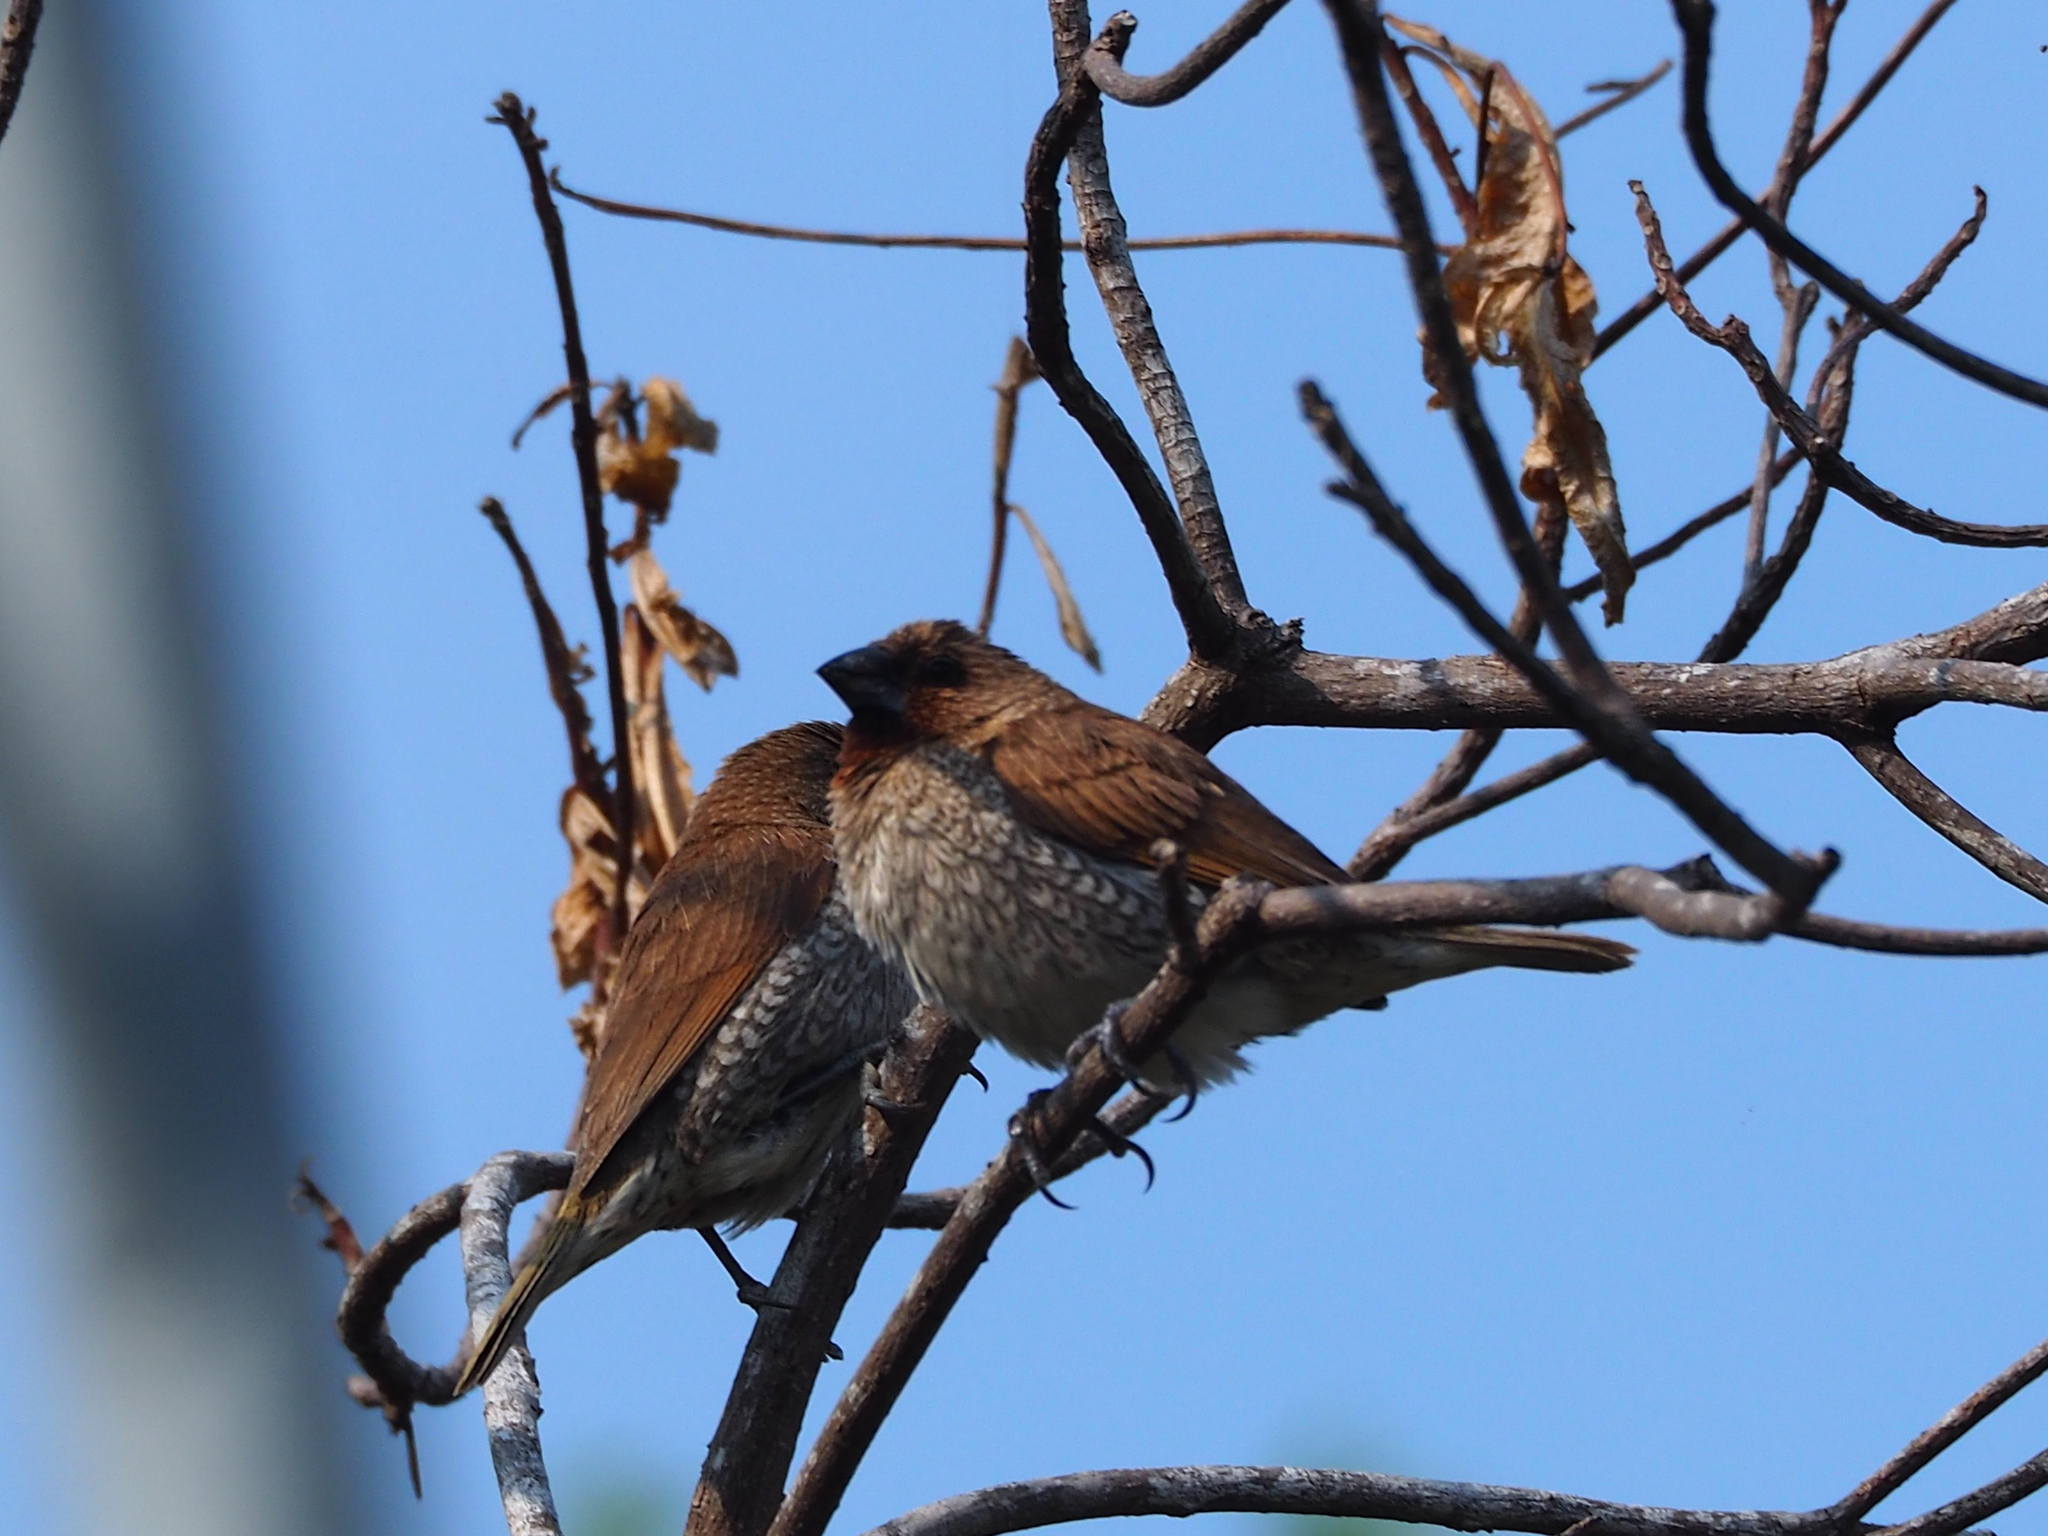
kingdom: Animalia
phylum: Chordata
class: Aves
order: Passeriformes
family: Estrildidae
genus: Lonchura
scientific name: Lonchura punctulata
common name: Scaly-breasted munia
